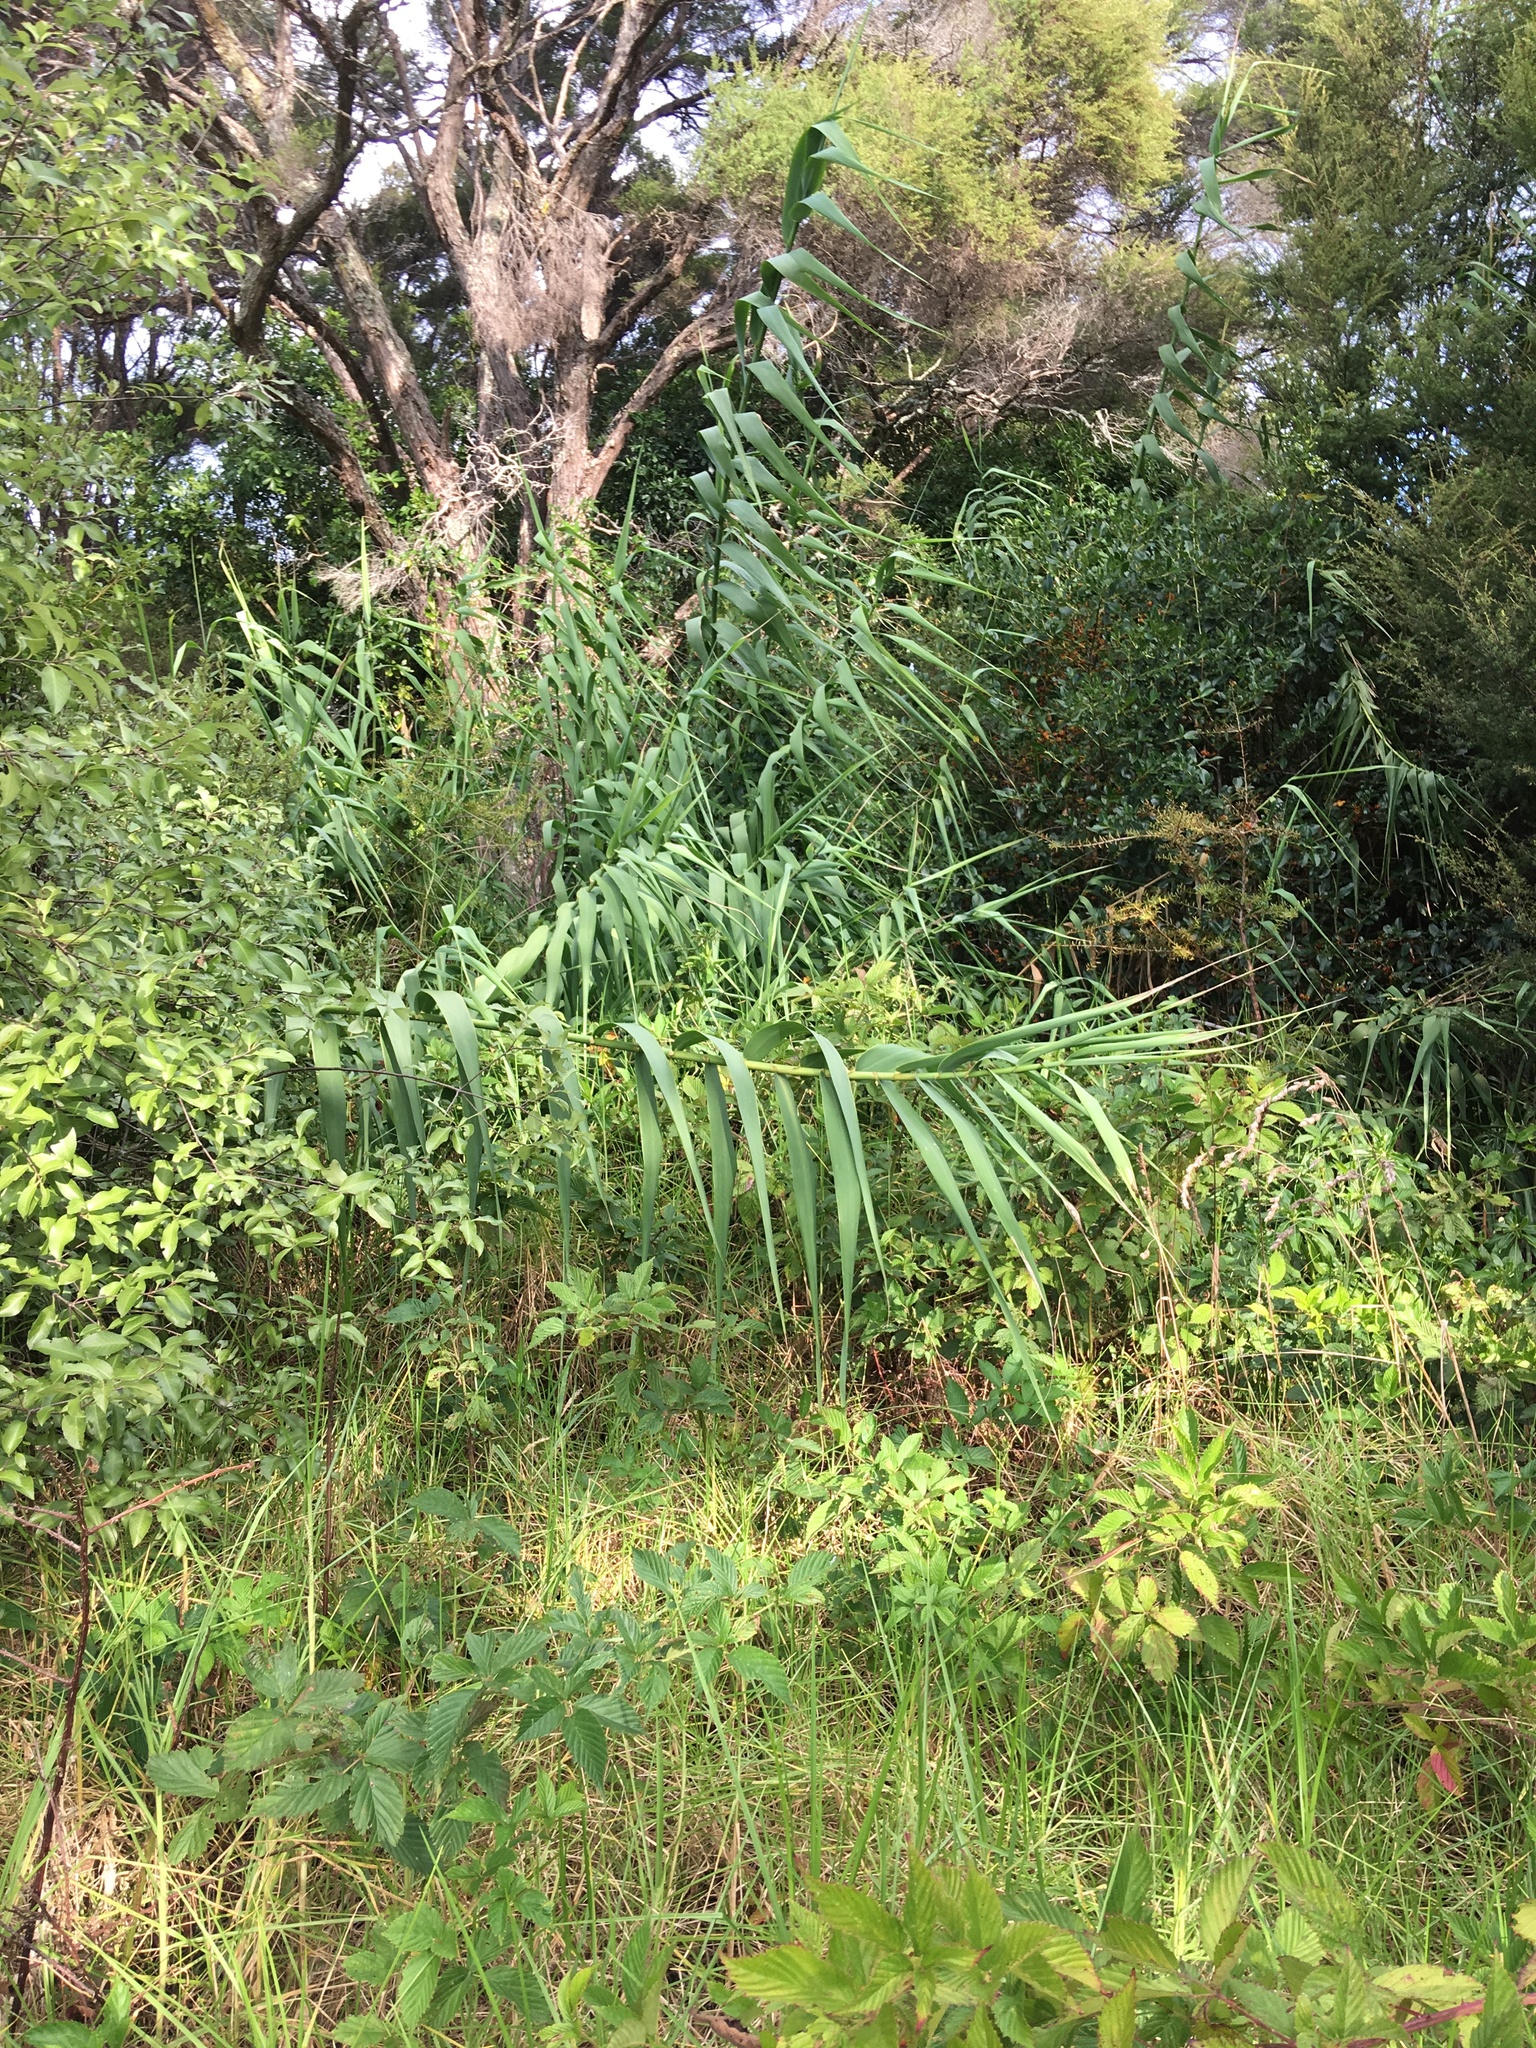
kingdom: Plantae
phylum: Tracheophyta
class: Magnoliopsida
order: Rosales
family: Rosaceae
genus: Rubus
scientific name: Rubus
